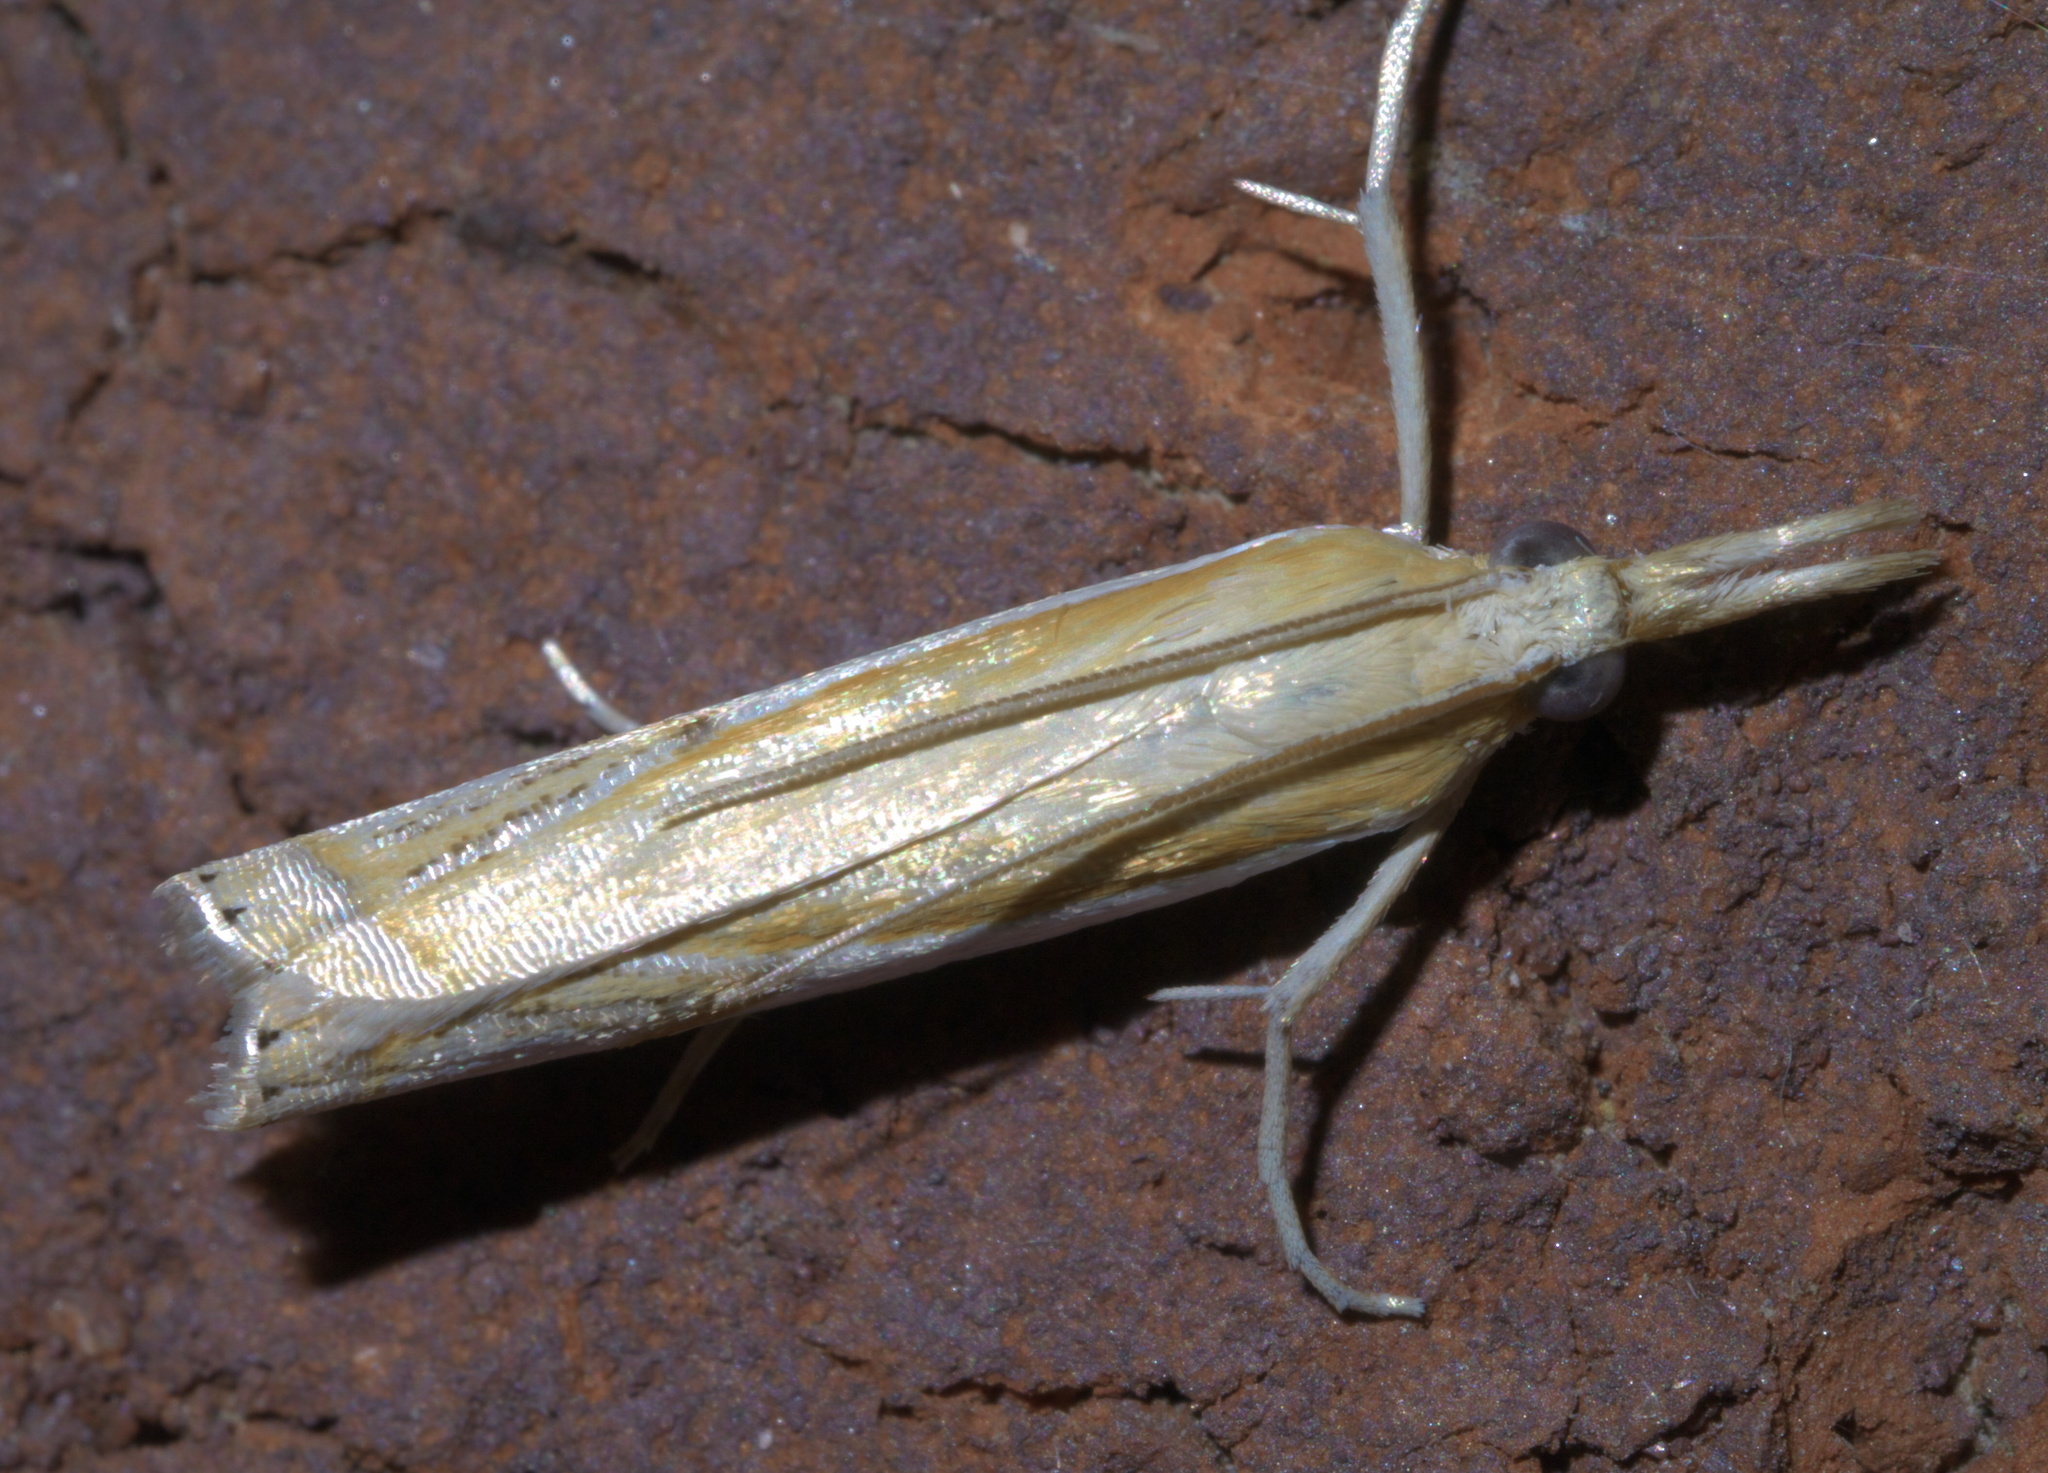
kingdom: Animalia
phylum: Arthropoda
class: Insecta
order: Lepidoptera
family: Crambidae
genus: Crambus
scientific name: Crambus agitatellus
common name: Double-banded grass-veneer
